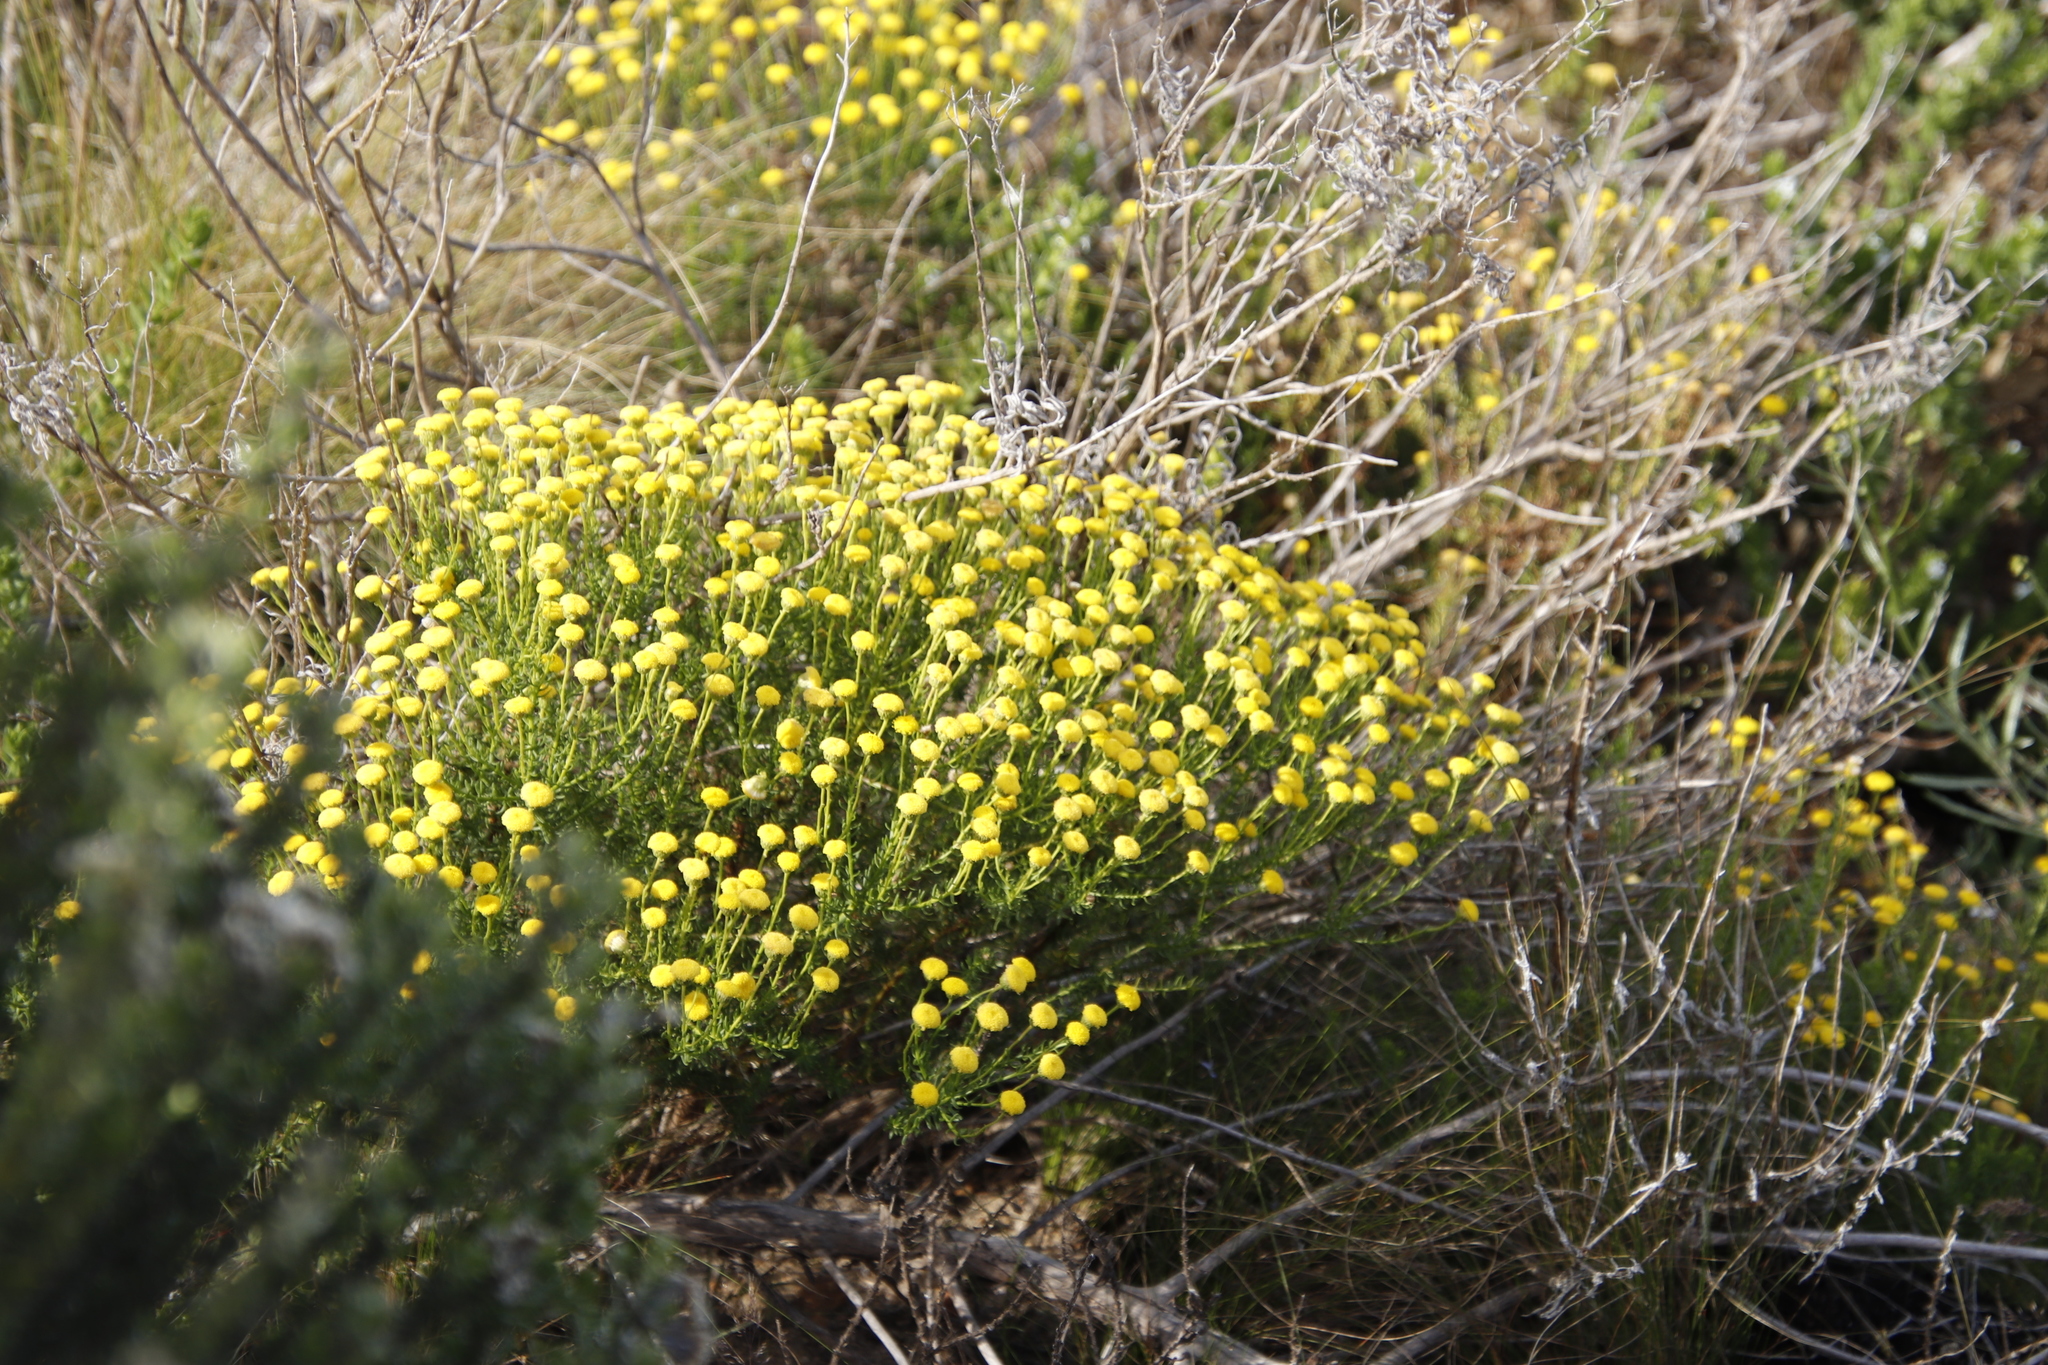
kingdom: Plantae
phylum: Tracheophyta
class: Magnoliopsida
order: Asterales
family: Asteraceae
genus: Chrysocoma
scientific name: Chrysocoma cernua
